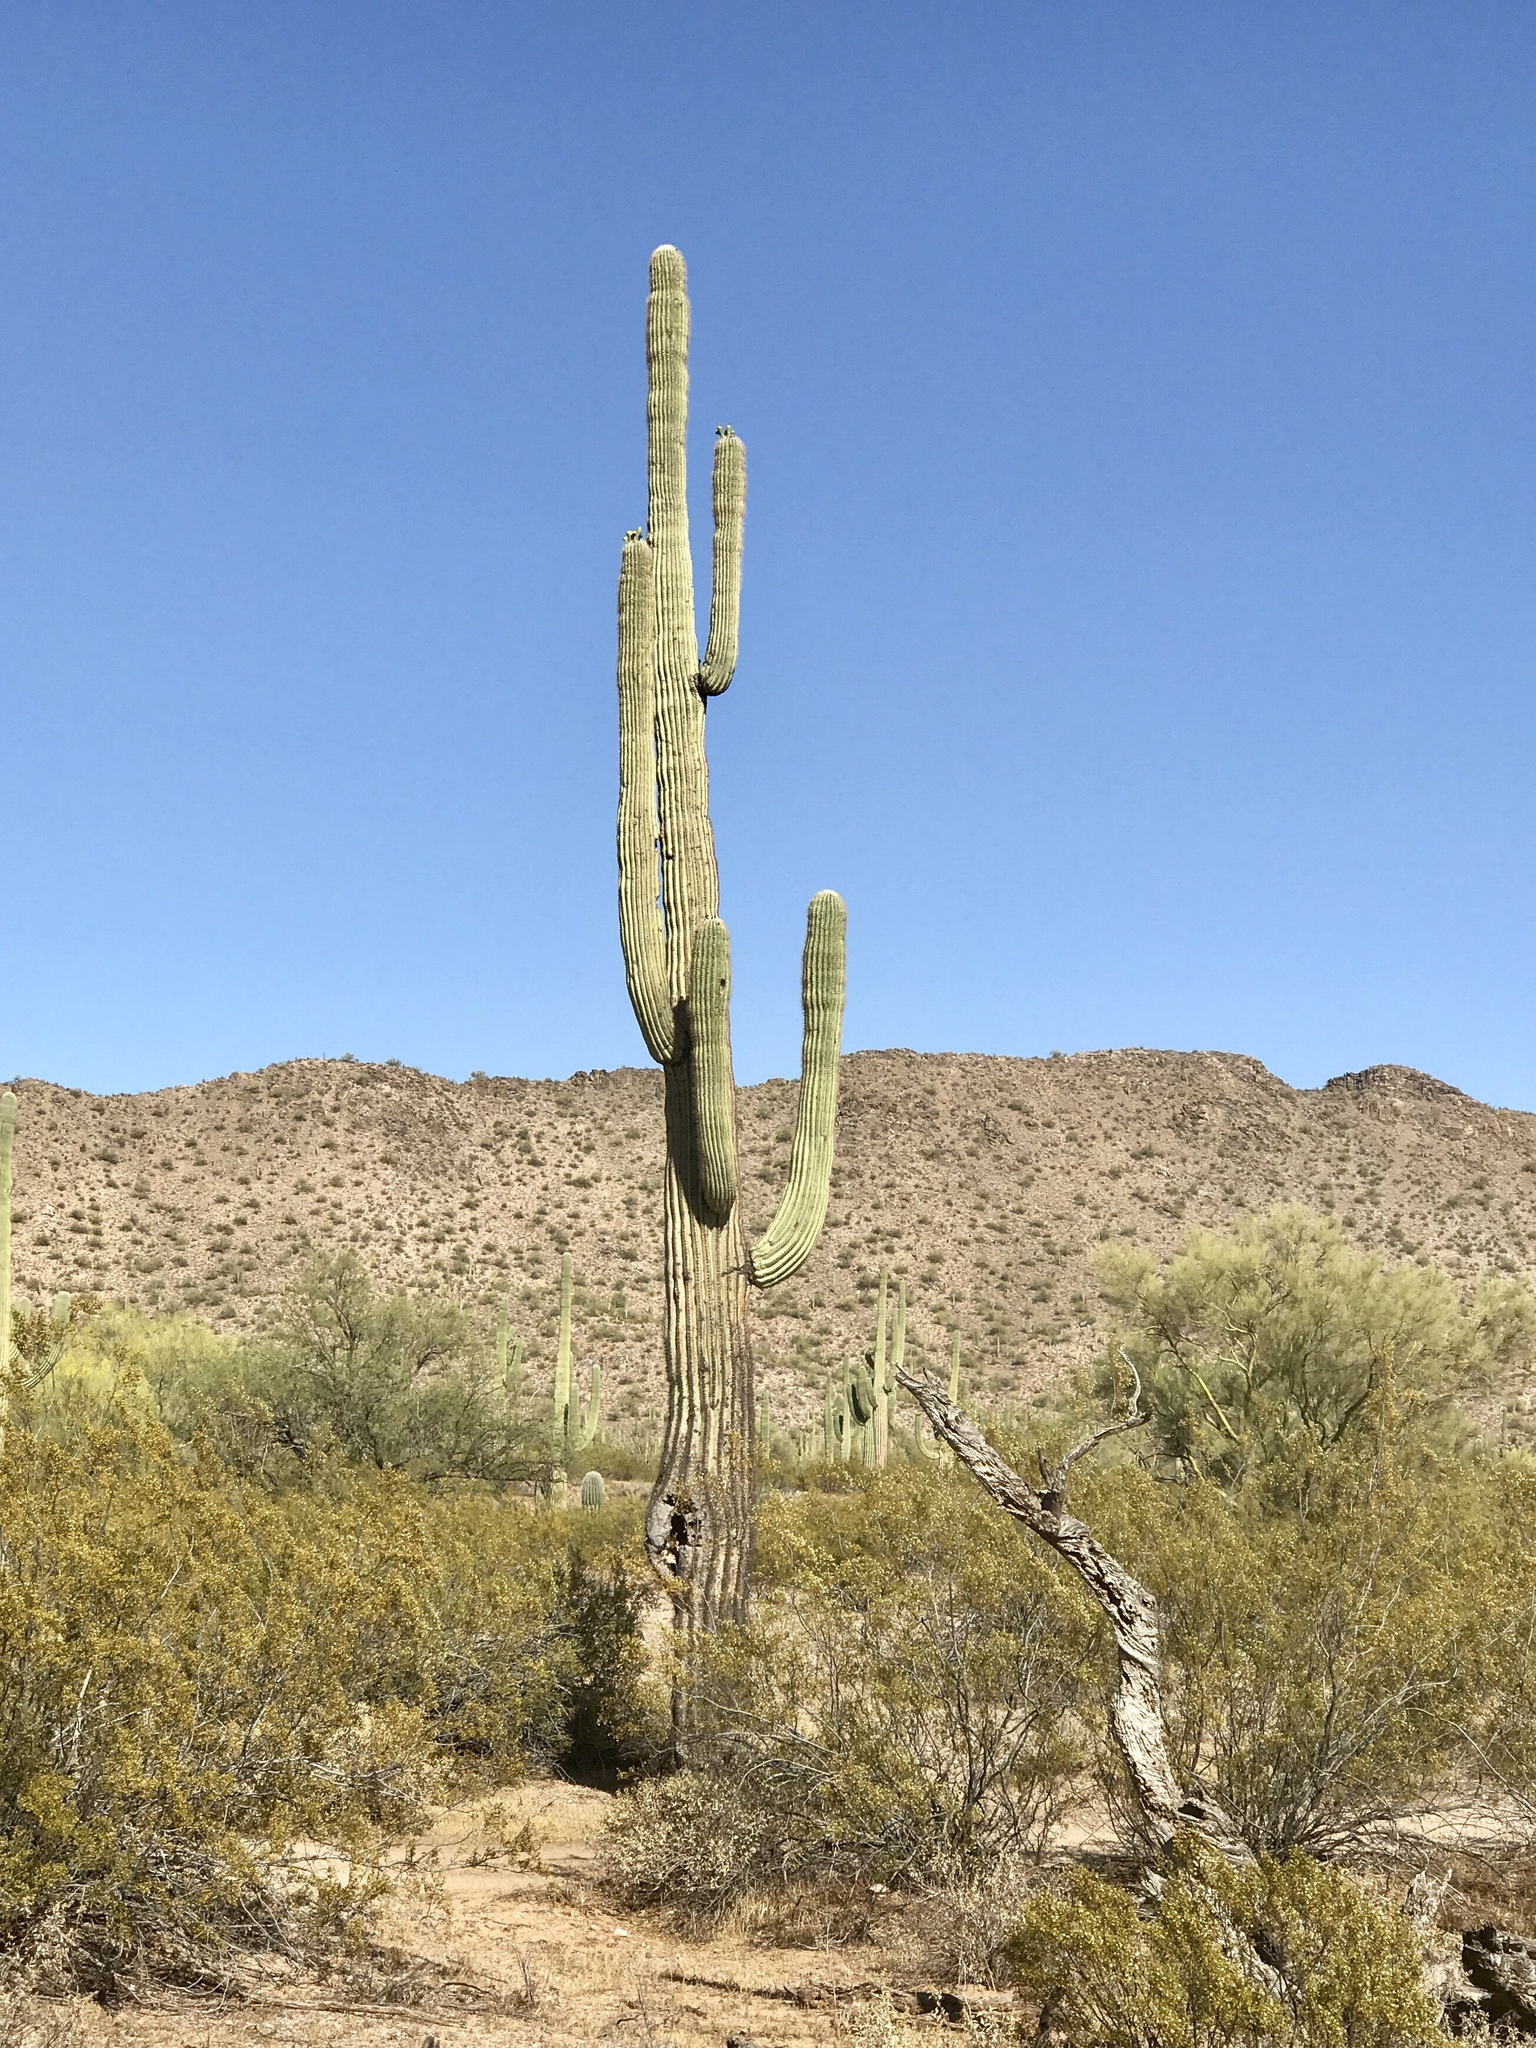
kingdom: Plantae
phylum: Tracheophyta
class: Magnoliopsida
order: Zygophyllales
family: Zygophyllaceae
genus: Larrea
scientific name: Larrea tridentata
